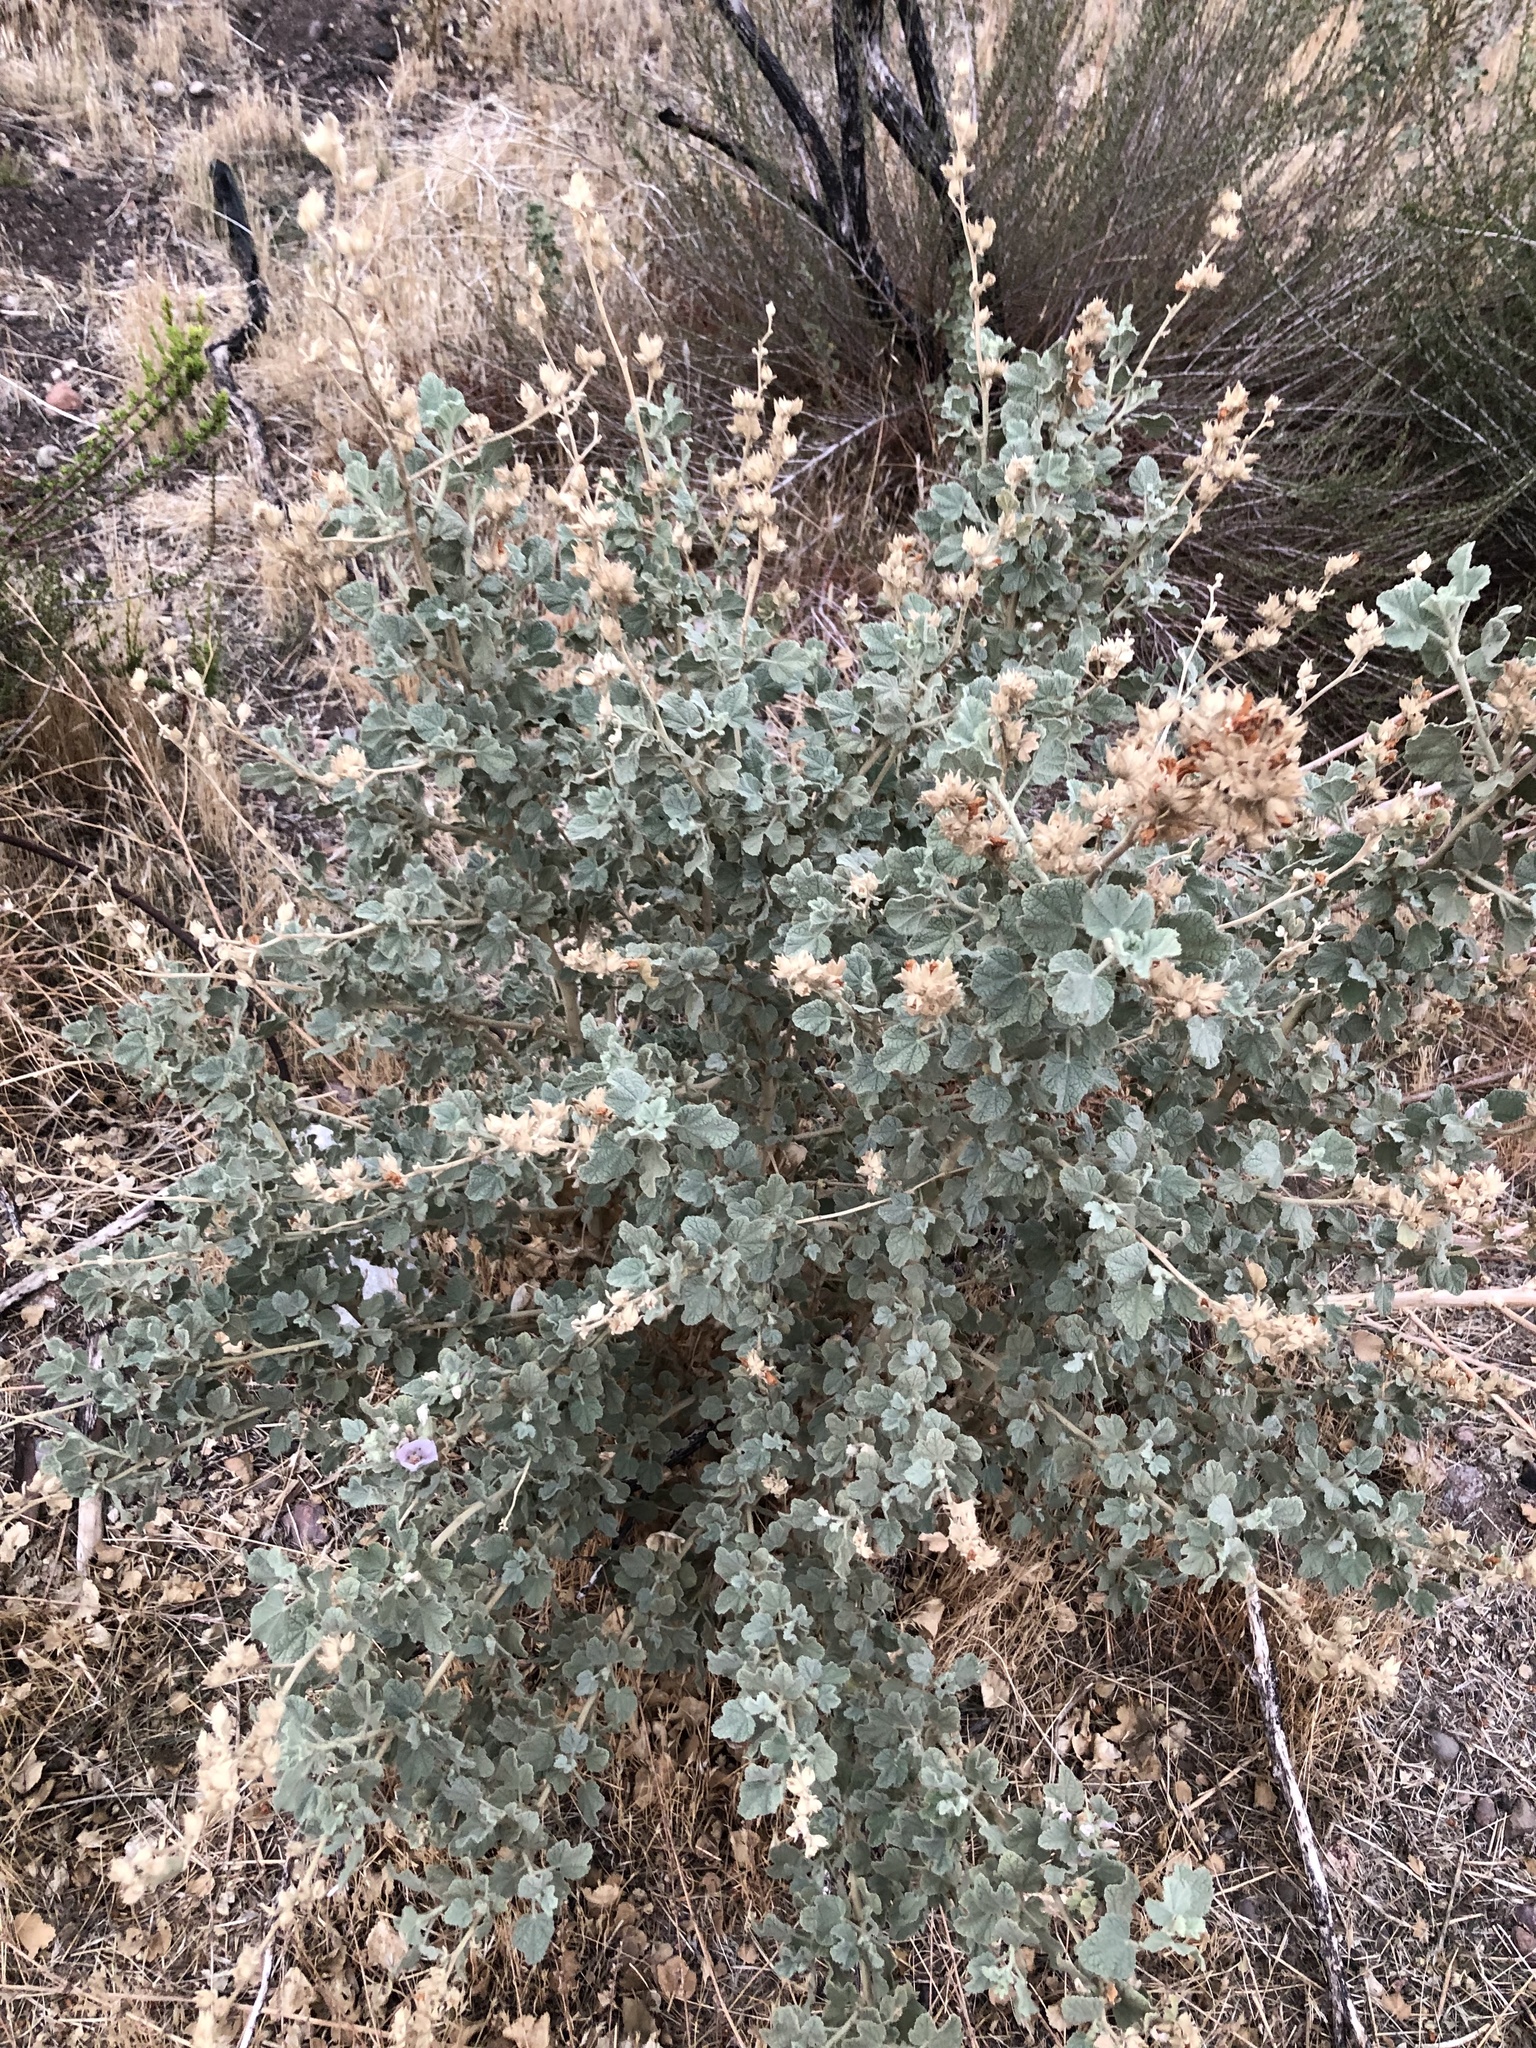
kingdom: Plantae
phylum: Tracheophyta
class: Magnoliopsida
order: Malvales
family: Malvaceae
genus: Malacothamnus
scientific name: Malacothamnus marrubioides
